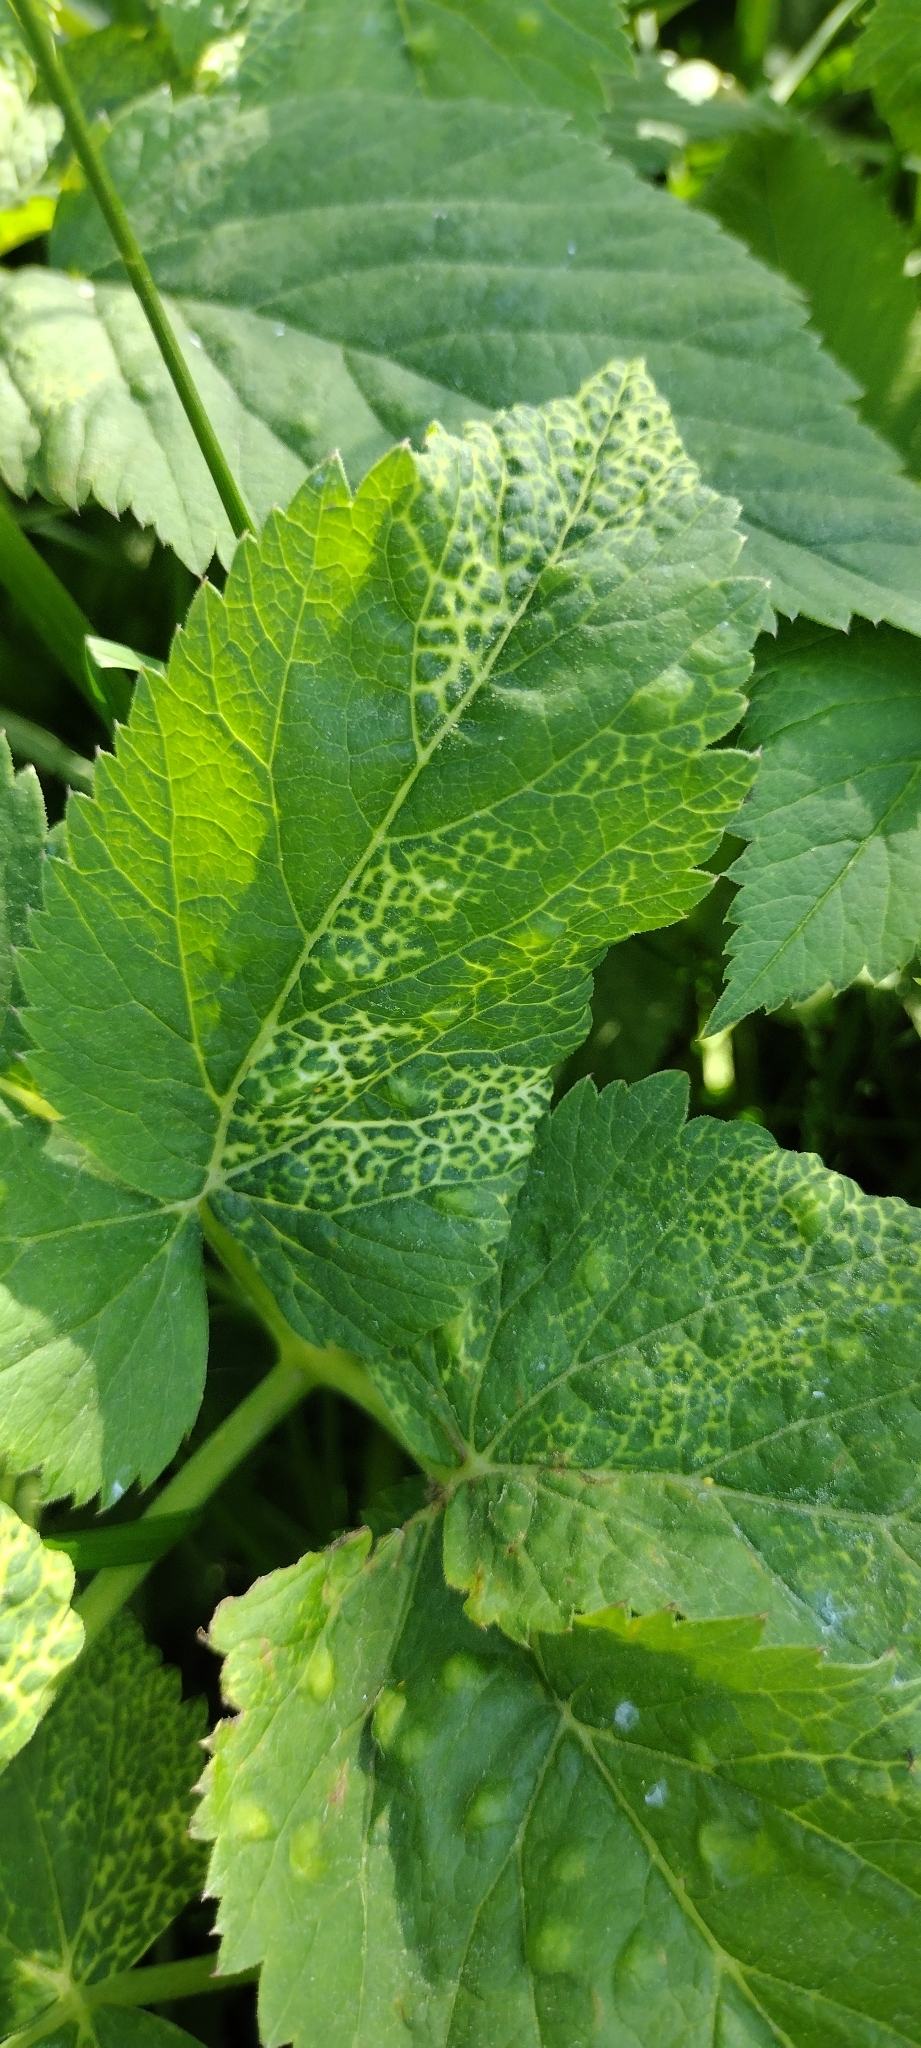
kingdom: Animalia
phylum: Arthropoda
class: Insecta
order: Hemiptera
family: Triozidae
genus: Trioza
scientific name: Trioza flavipennis
